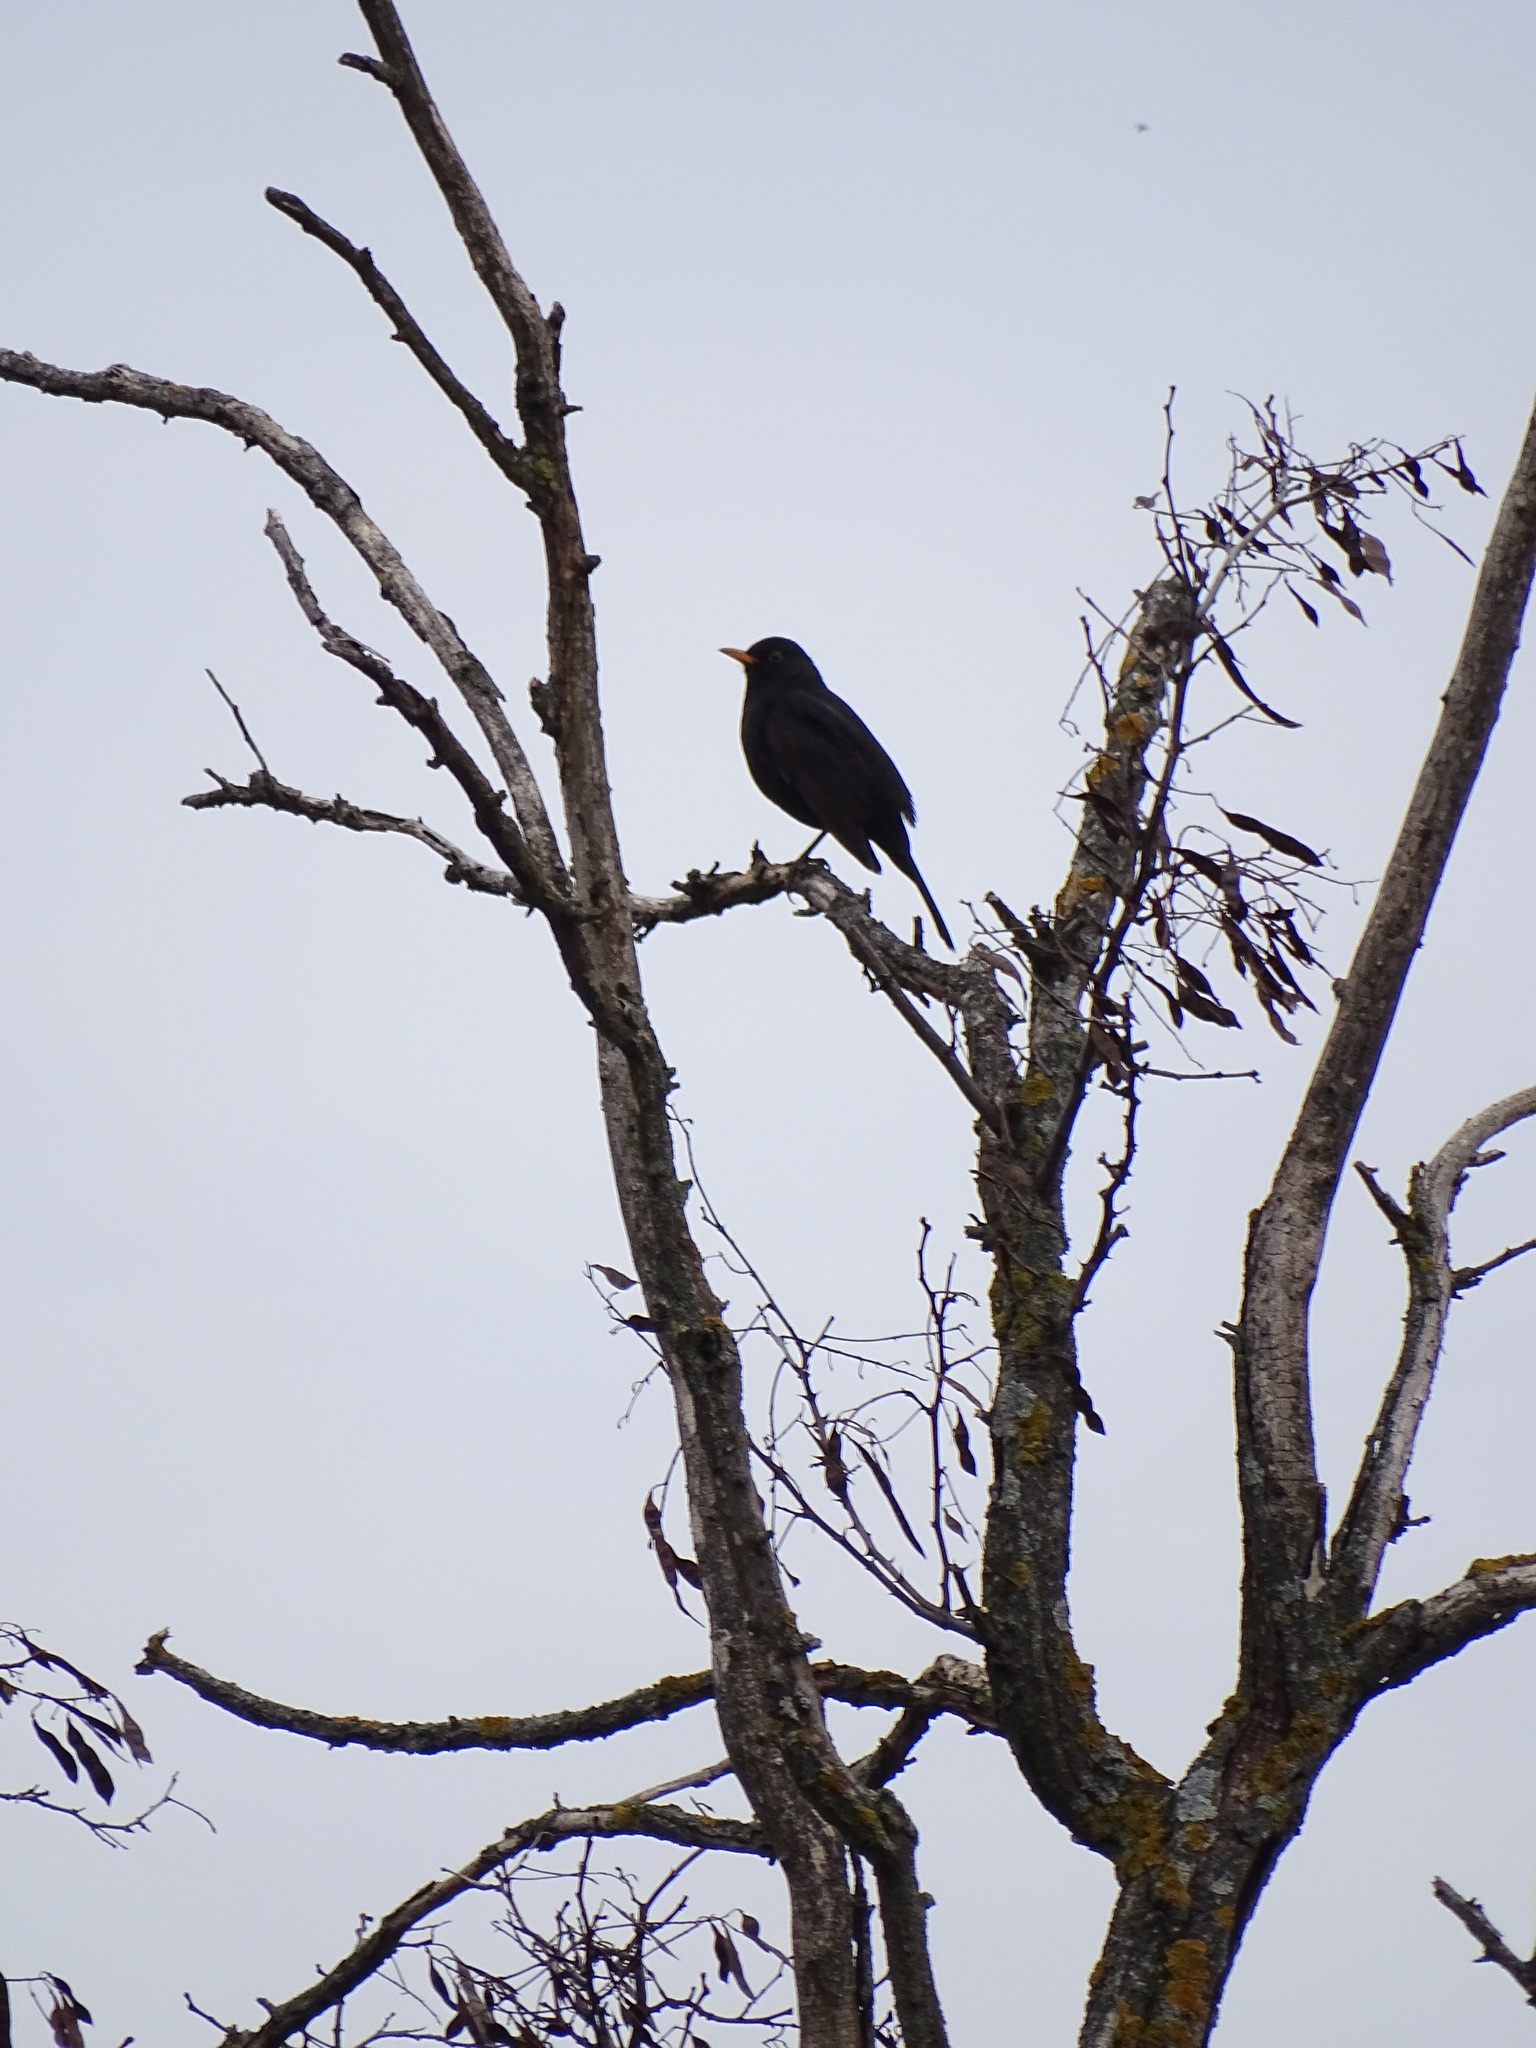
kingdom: Animalia
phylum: Chordata
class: Aves
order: Passeriformes
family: Turdidae
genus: Turdus
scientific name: Turdus merula
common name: Common blackbird
